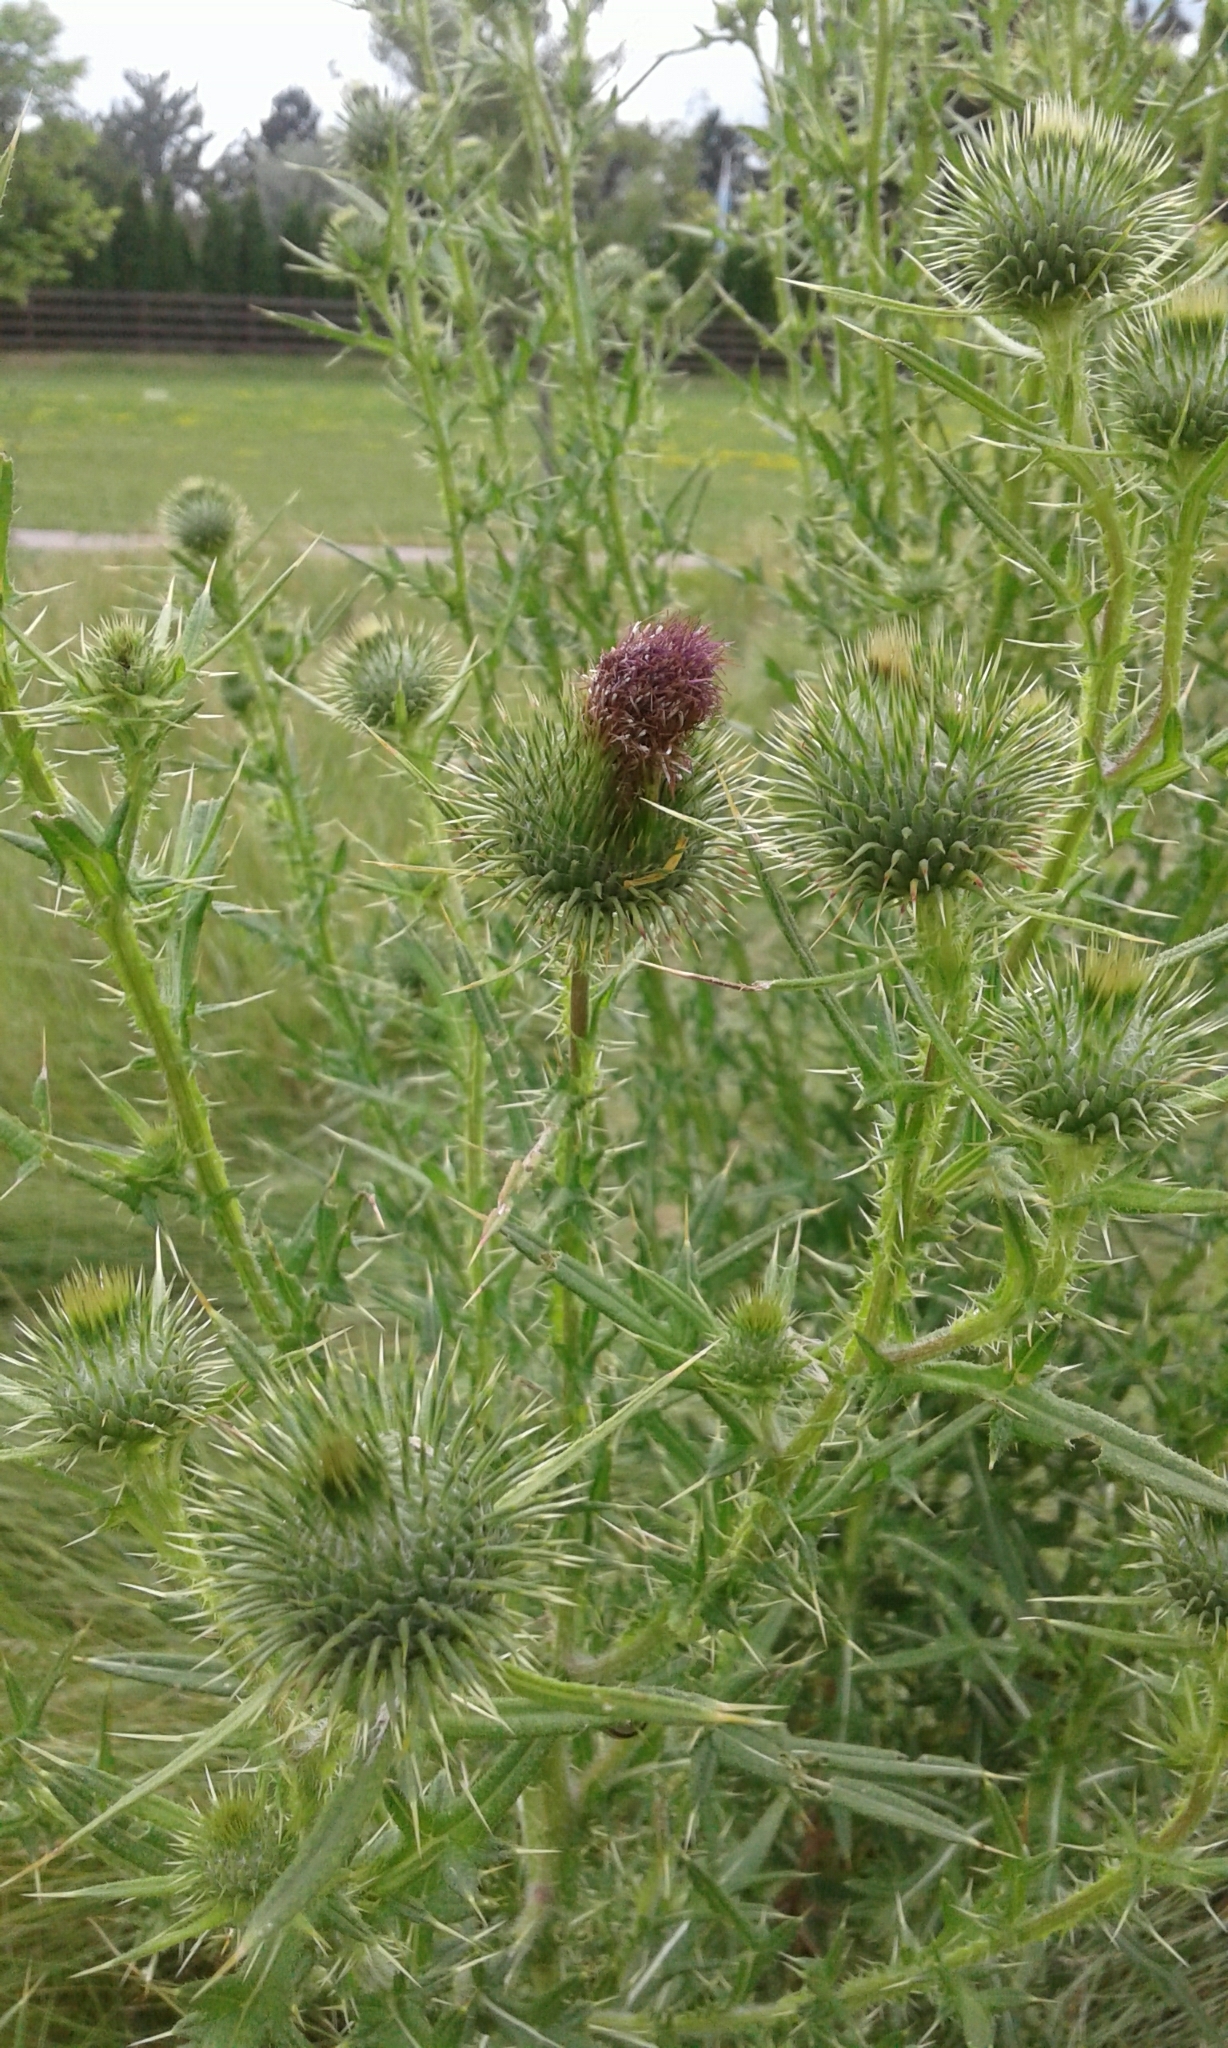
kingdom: Plantae
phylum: Tracheophyta
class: Magnoliopsida
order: Asterales
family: Asteraceae
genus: Cirsium
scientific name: Cirsium vulgare
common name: Bull thistle
